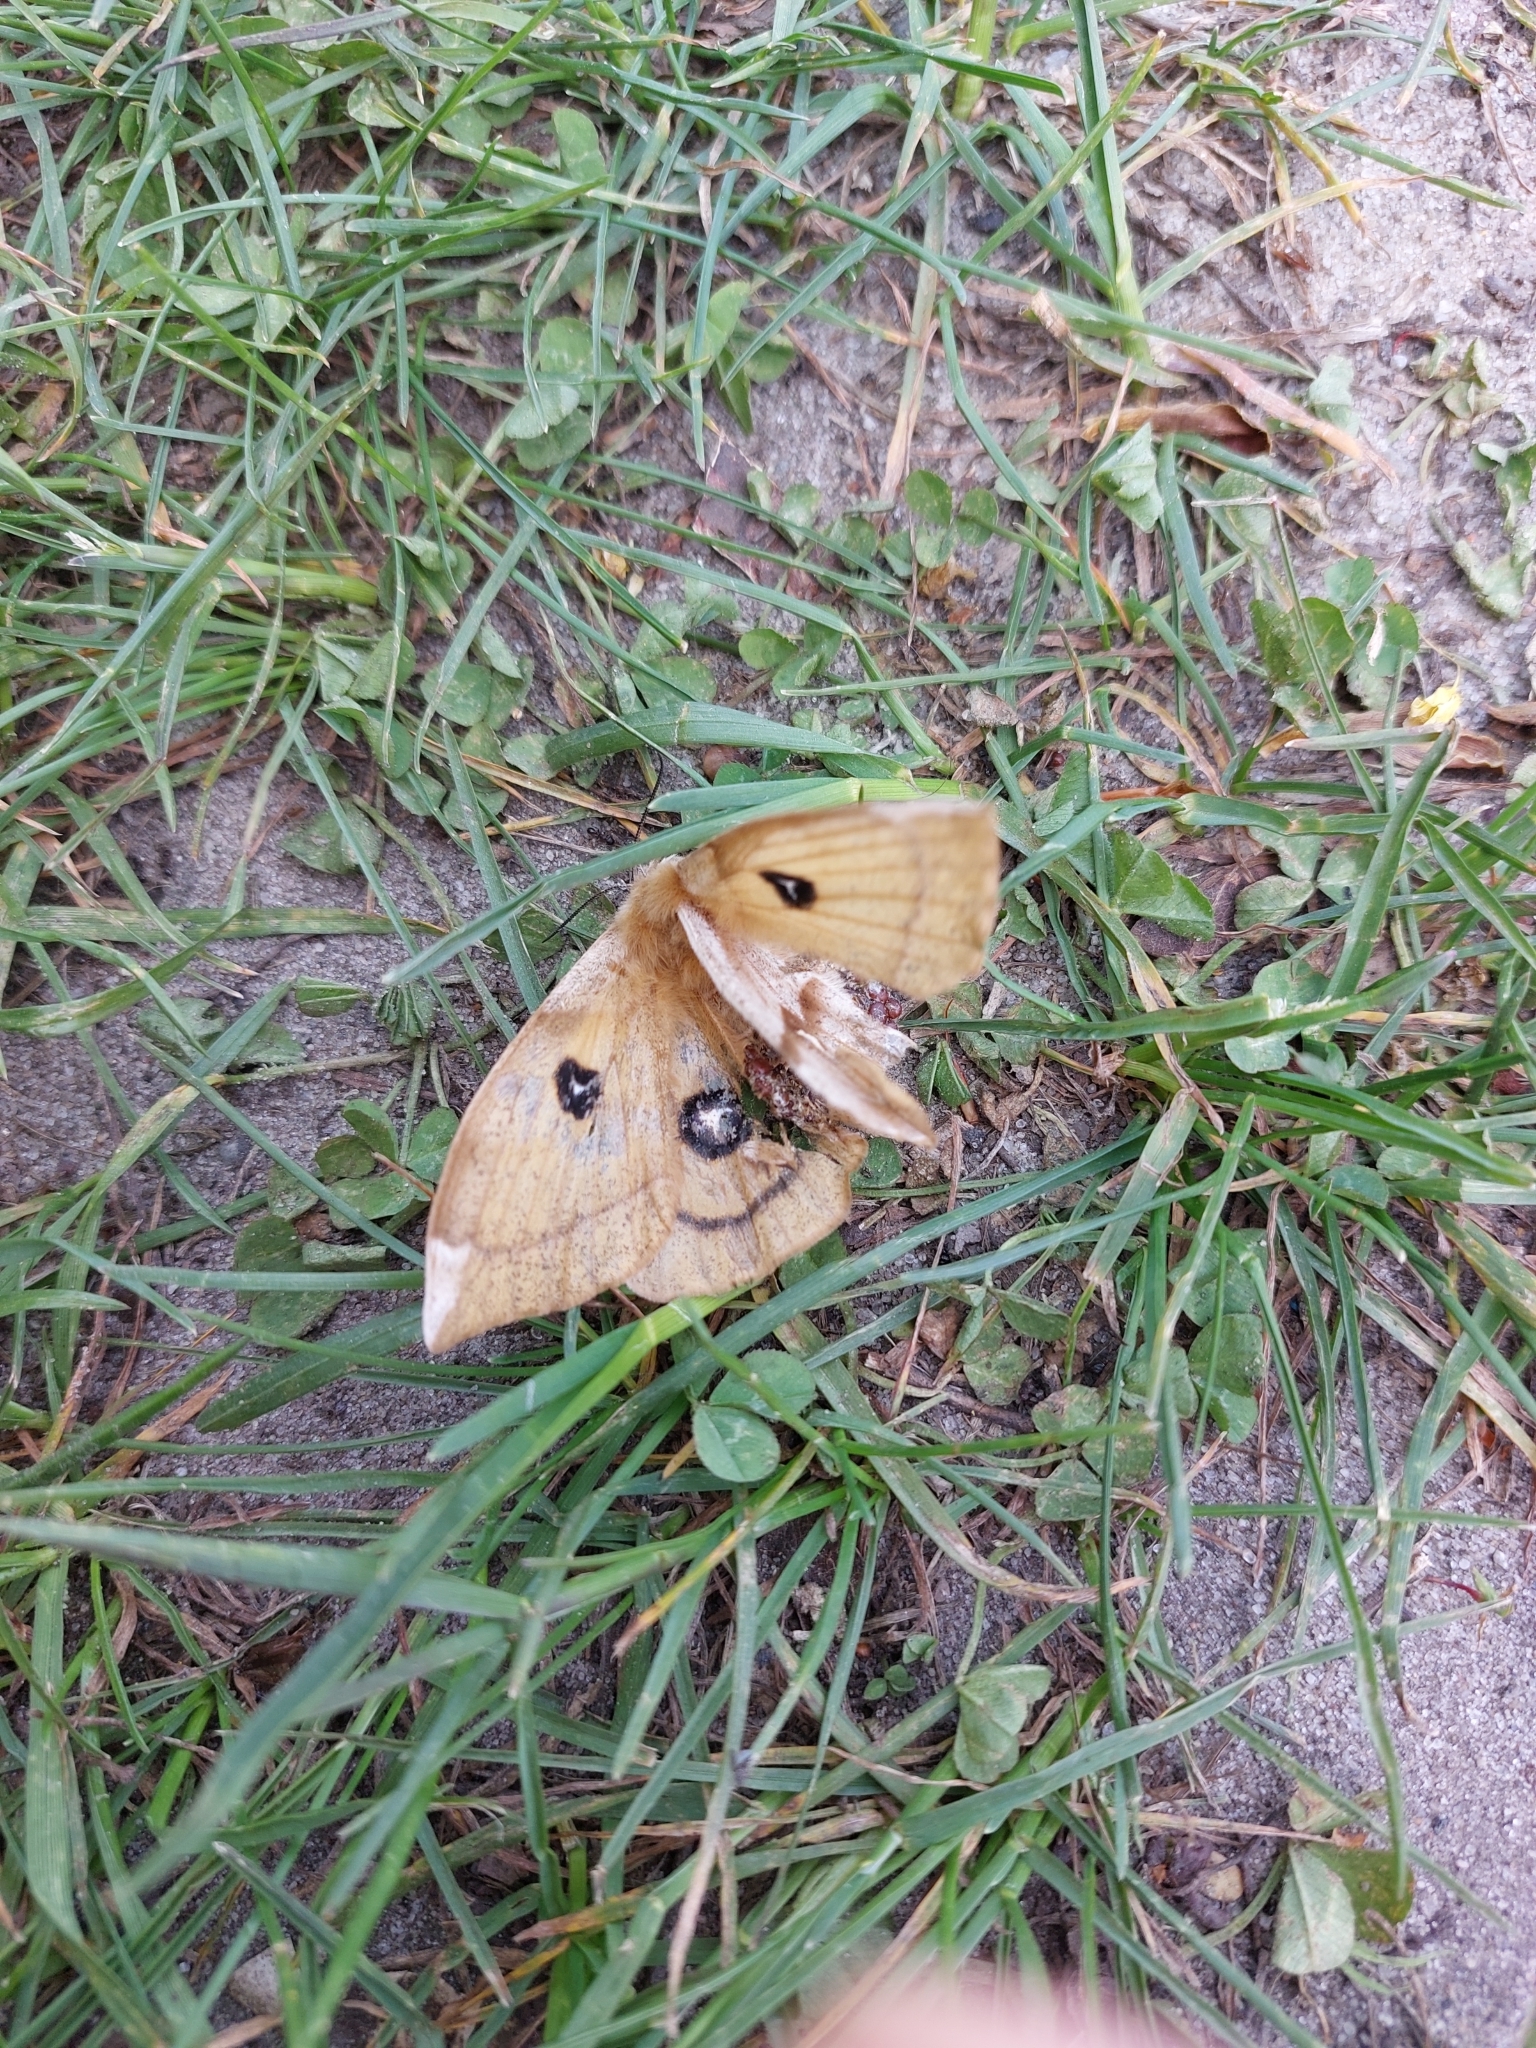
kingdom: Animalia
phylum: Arthropoda
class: Insecta
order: Lepidoptera
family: Saturniidae
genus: Aglia
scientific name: Aglia tau
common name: Tau emperor
